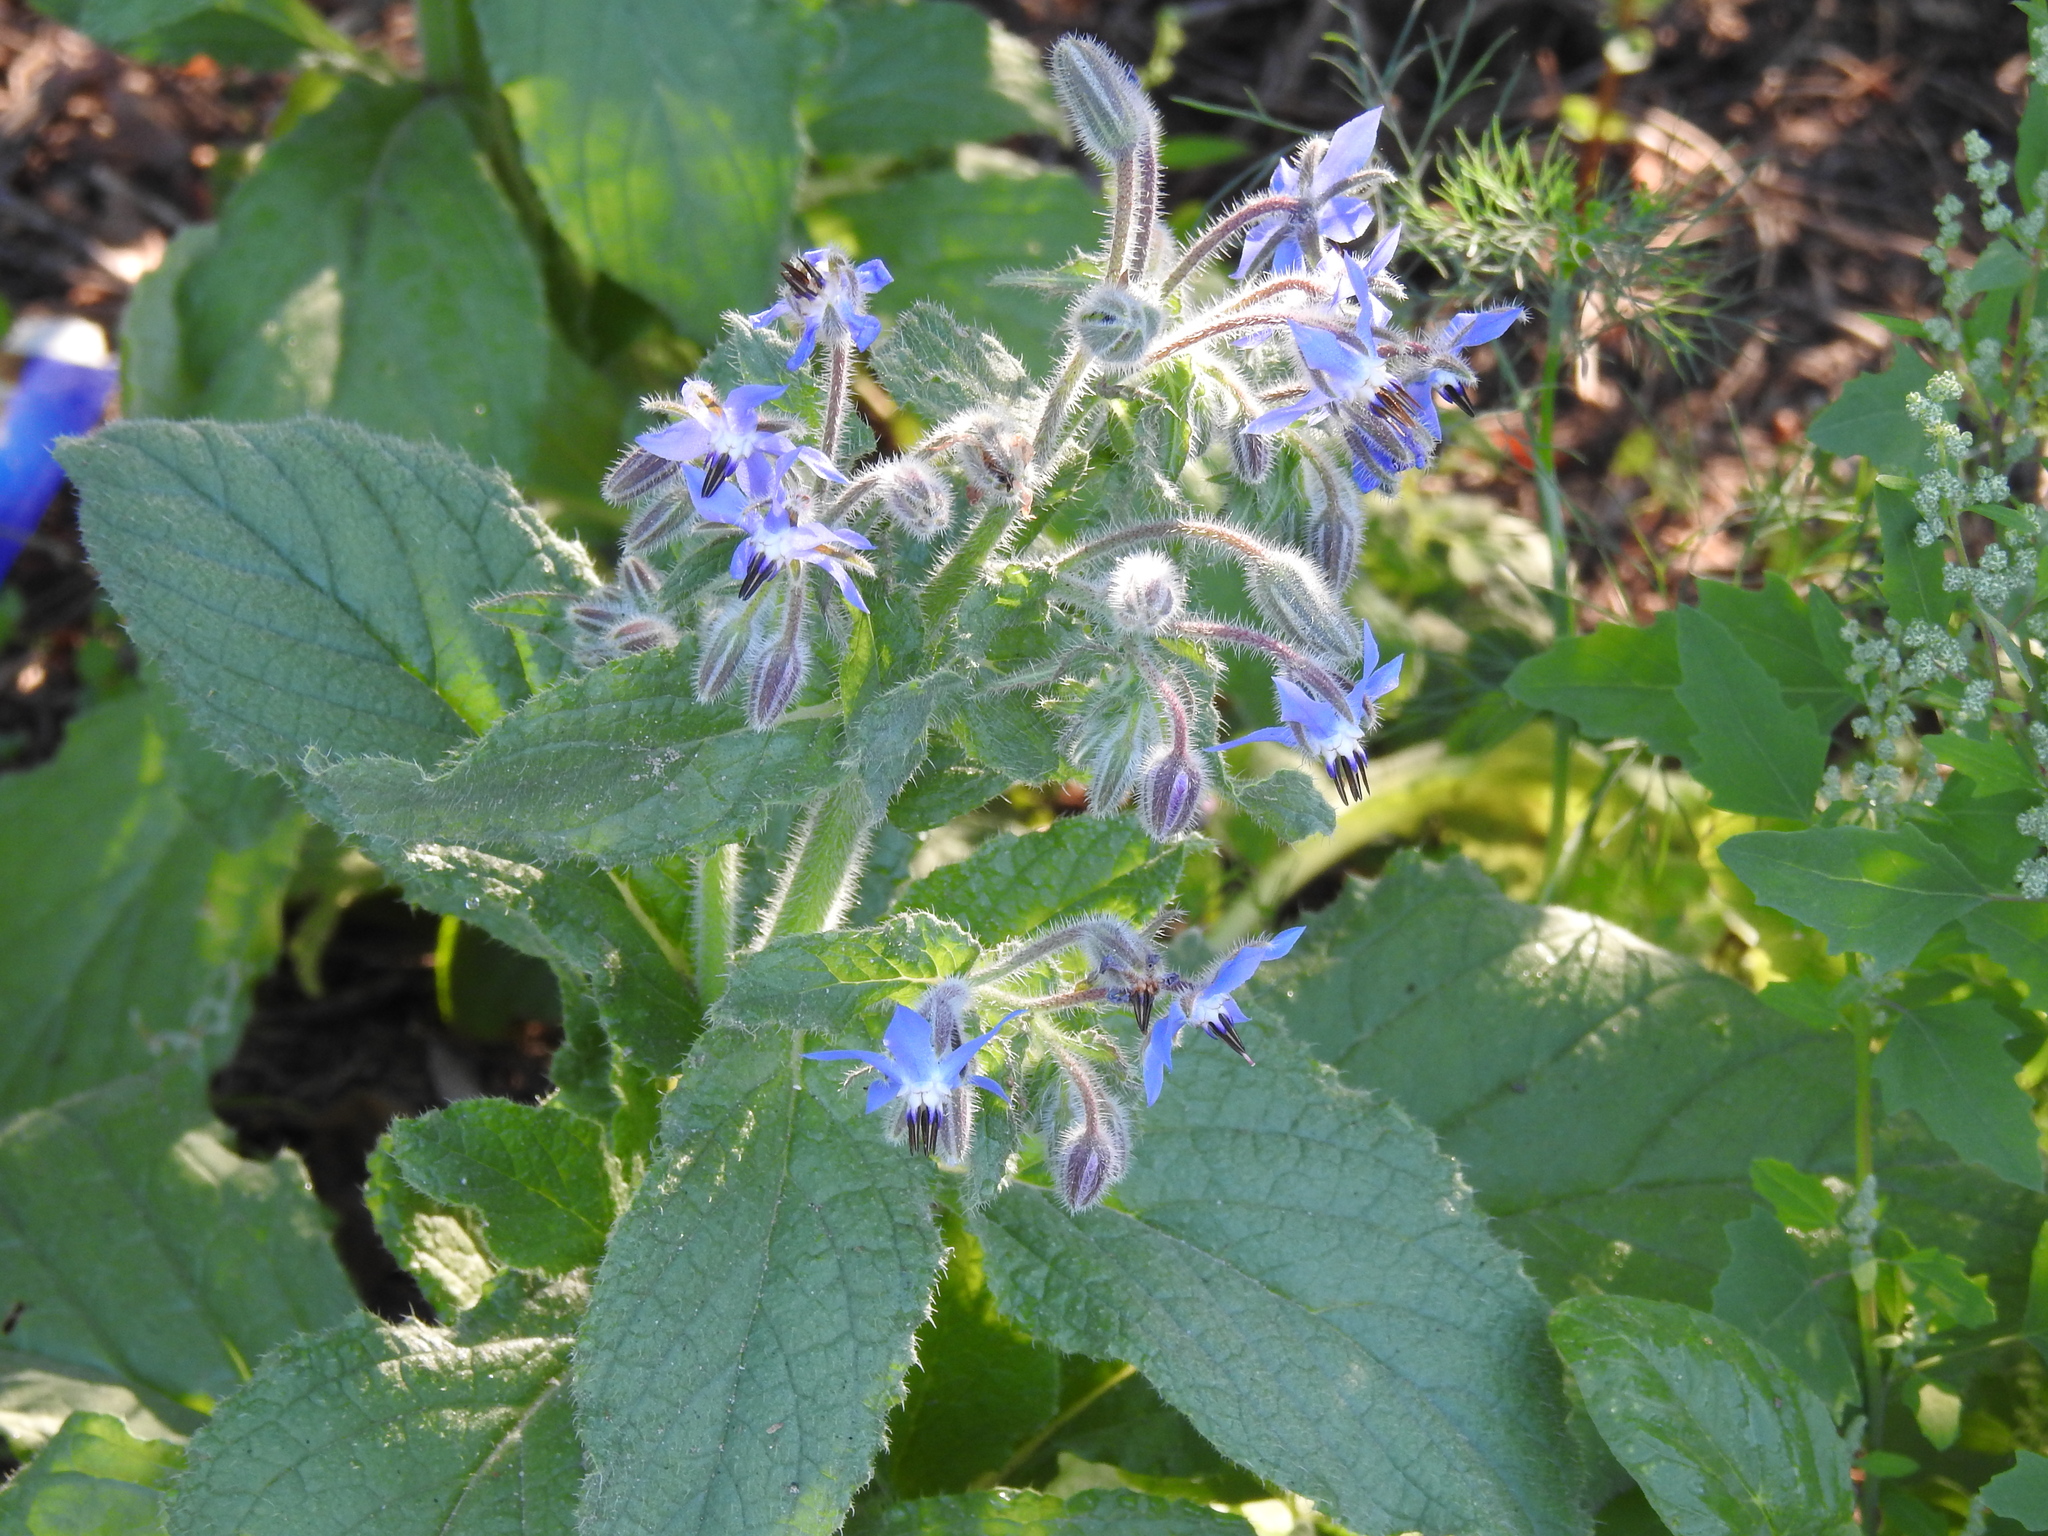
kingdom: Plantae
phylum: Tracheophyta
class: Magnoliopsida
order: Boraginales
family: Boraginaceae
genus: Borago
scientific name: Borago officinalis
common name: Borage
